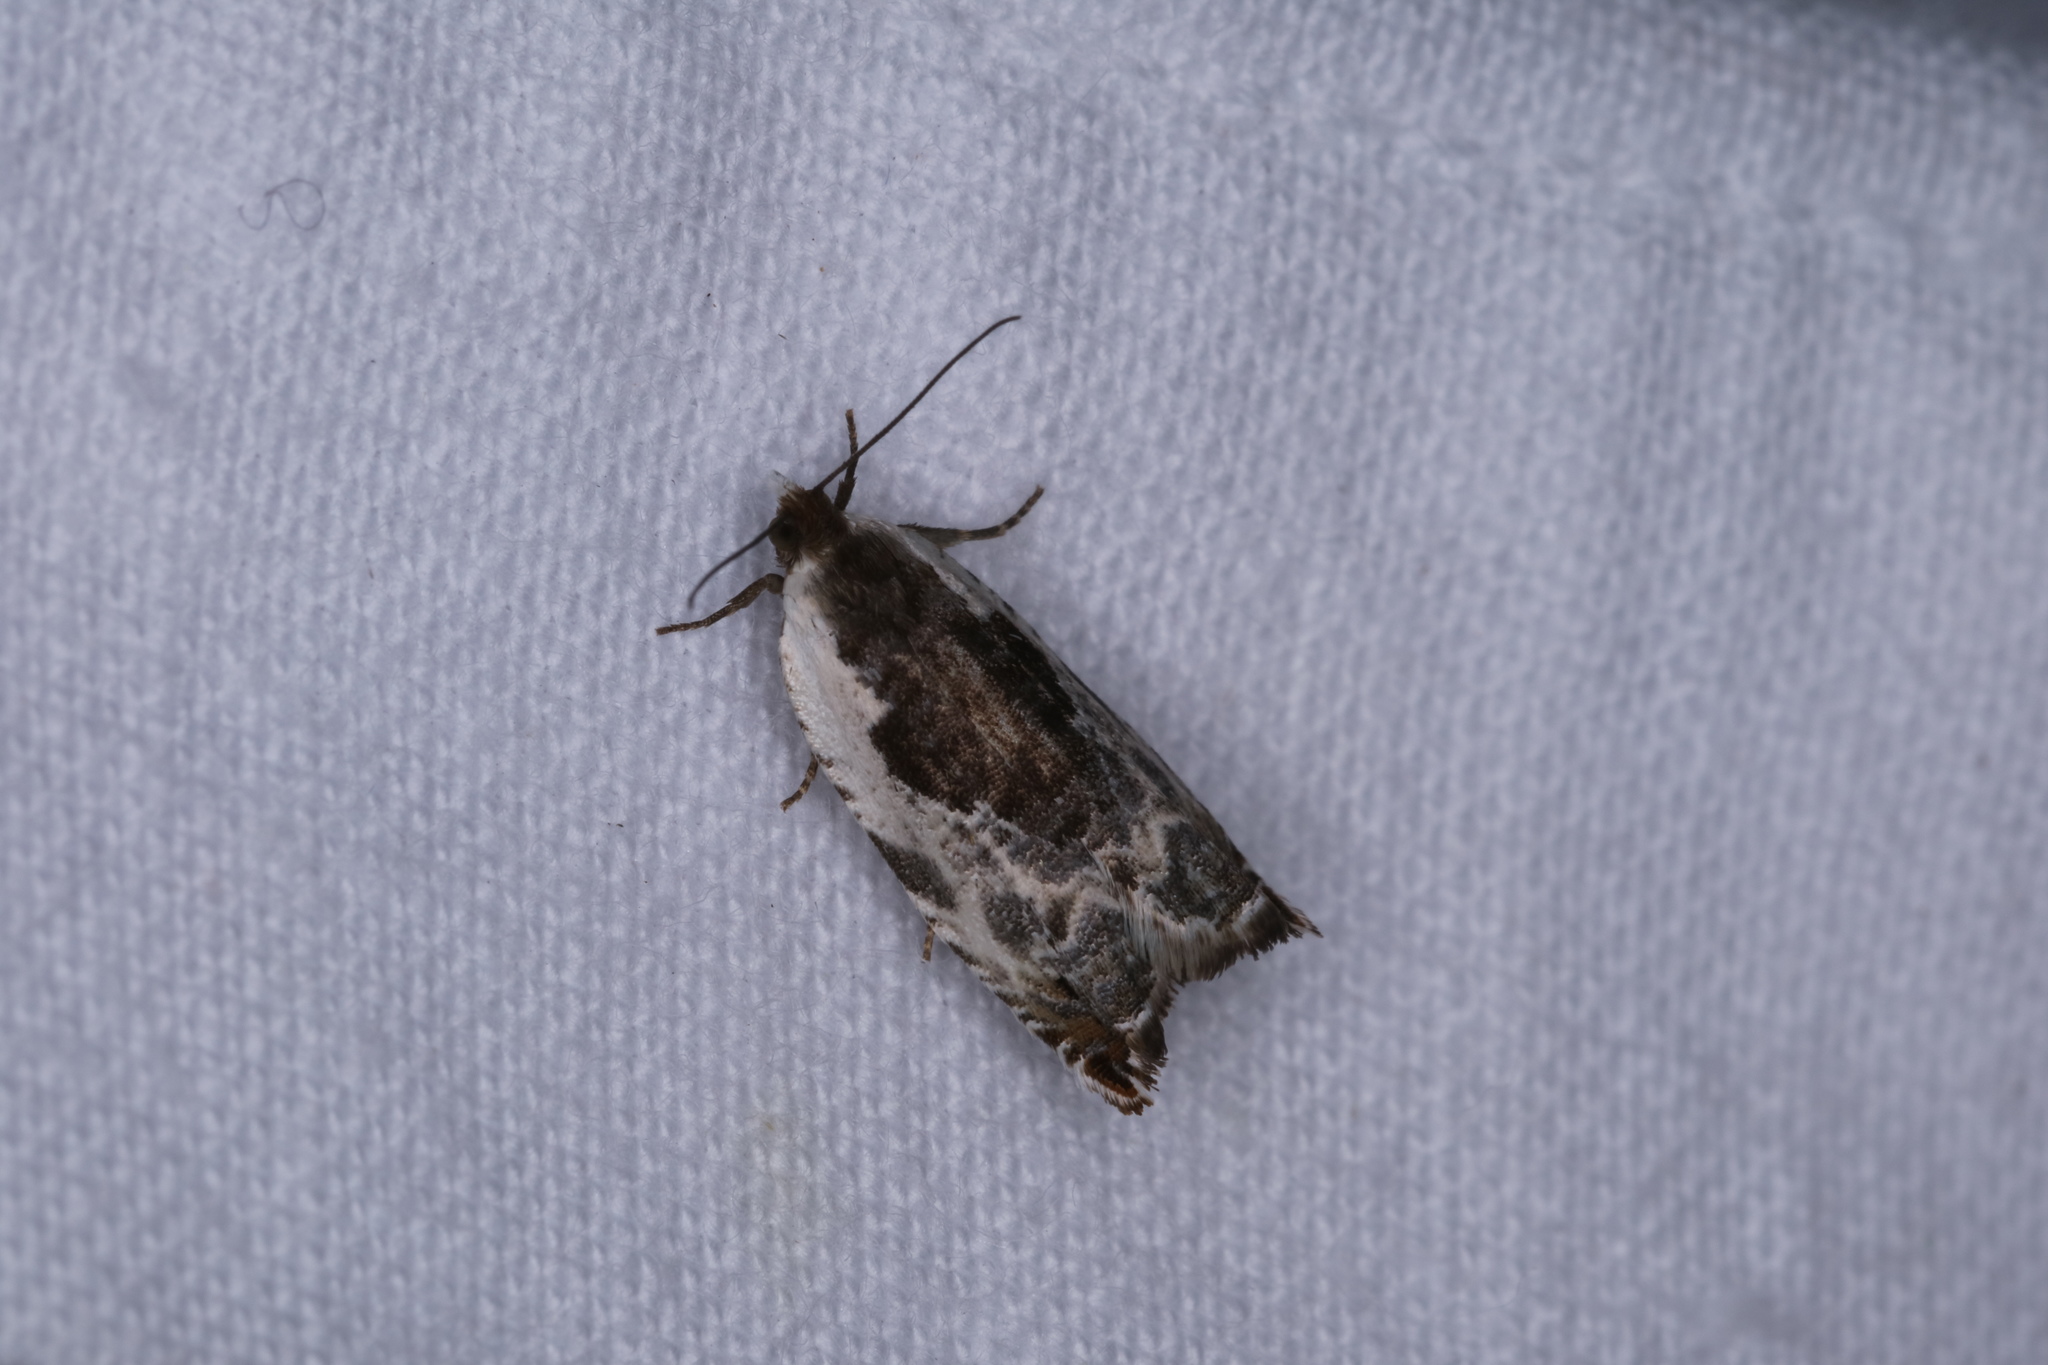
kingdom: Animalia
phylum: Arthropoda
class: Insecta
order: Lepidoptera
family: Tortricidae
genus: Ancylis
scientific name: Ancylis nubeculana
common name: Little cloud ancylis moth
